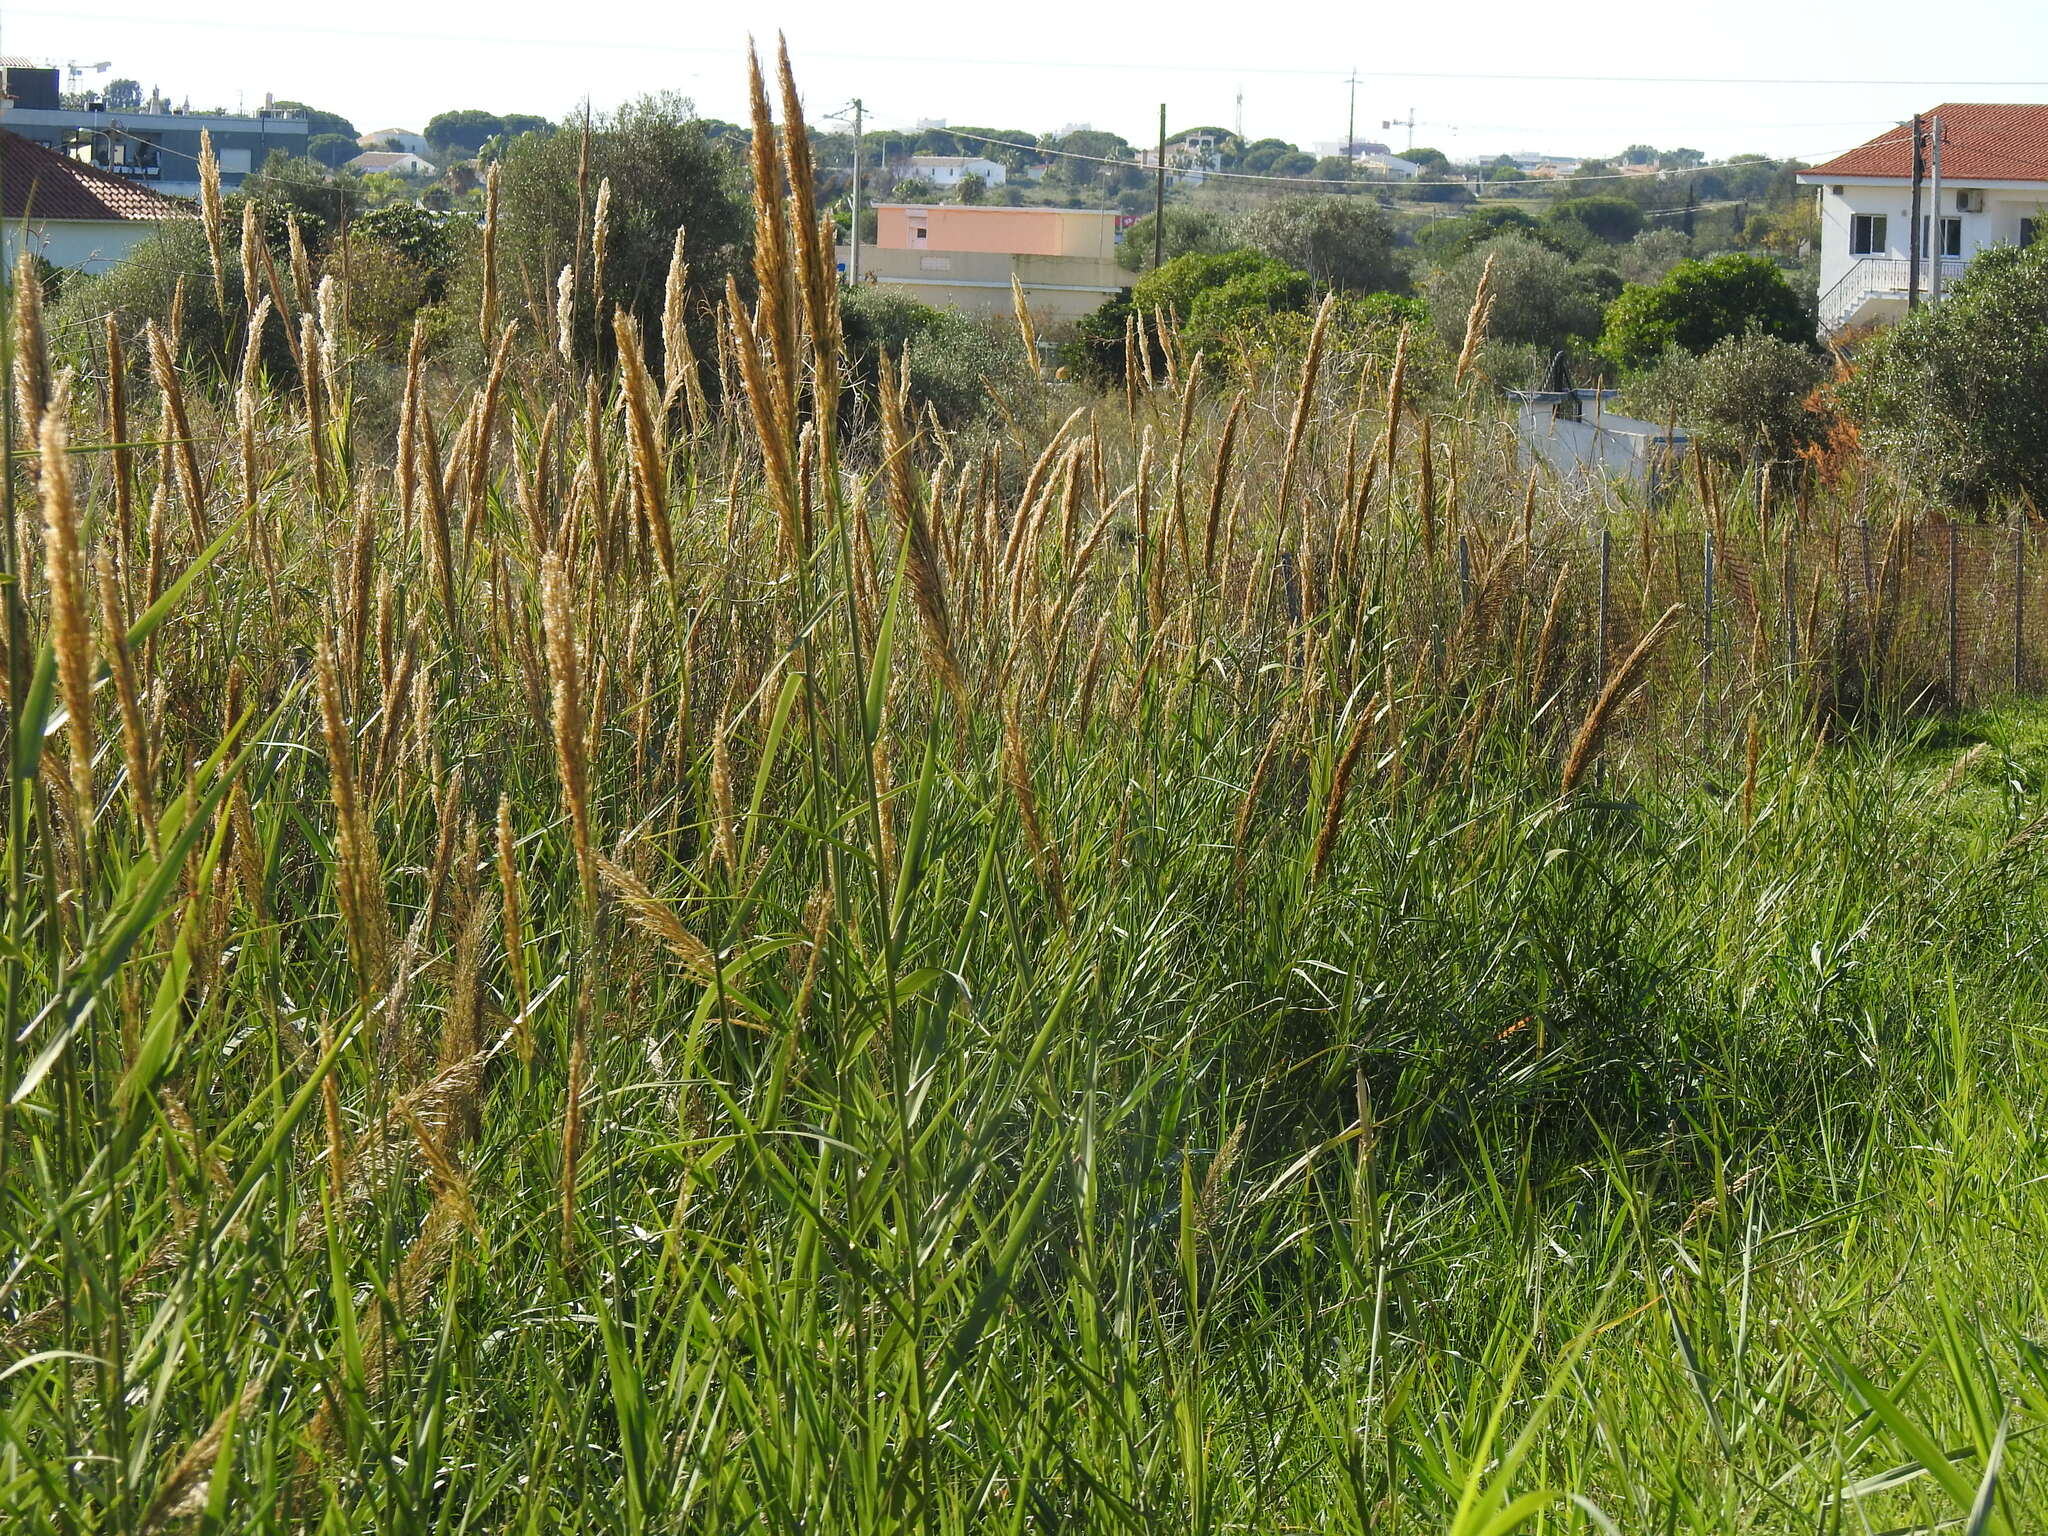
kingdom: Plantae
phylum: Tracheophyta
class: Liliopsida
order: Poales
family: Poaceae
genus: Arundo
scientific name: Arundo micrantha
